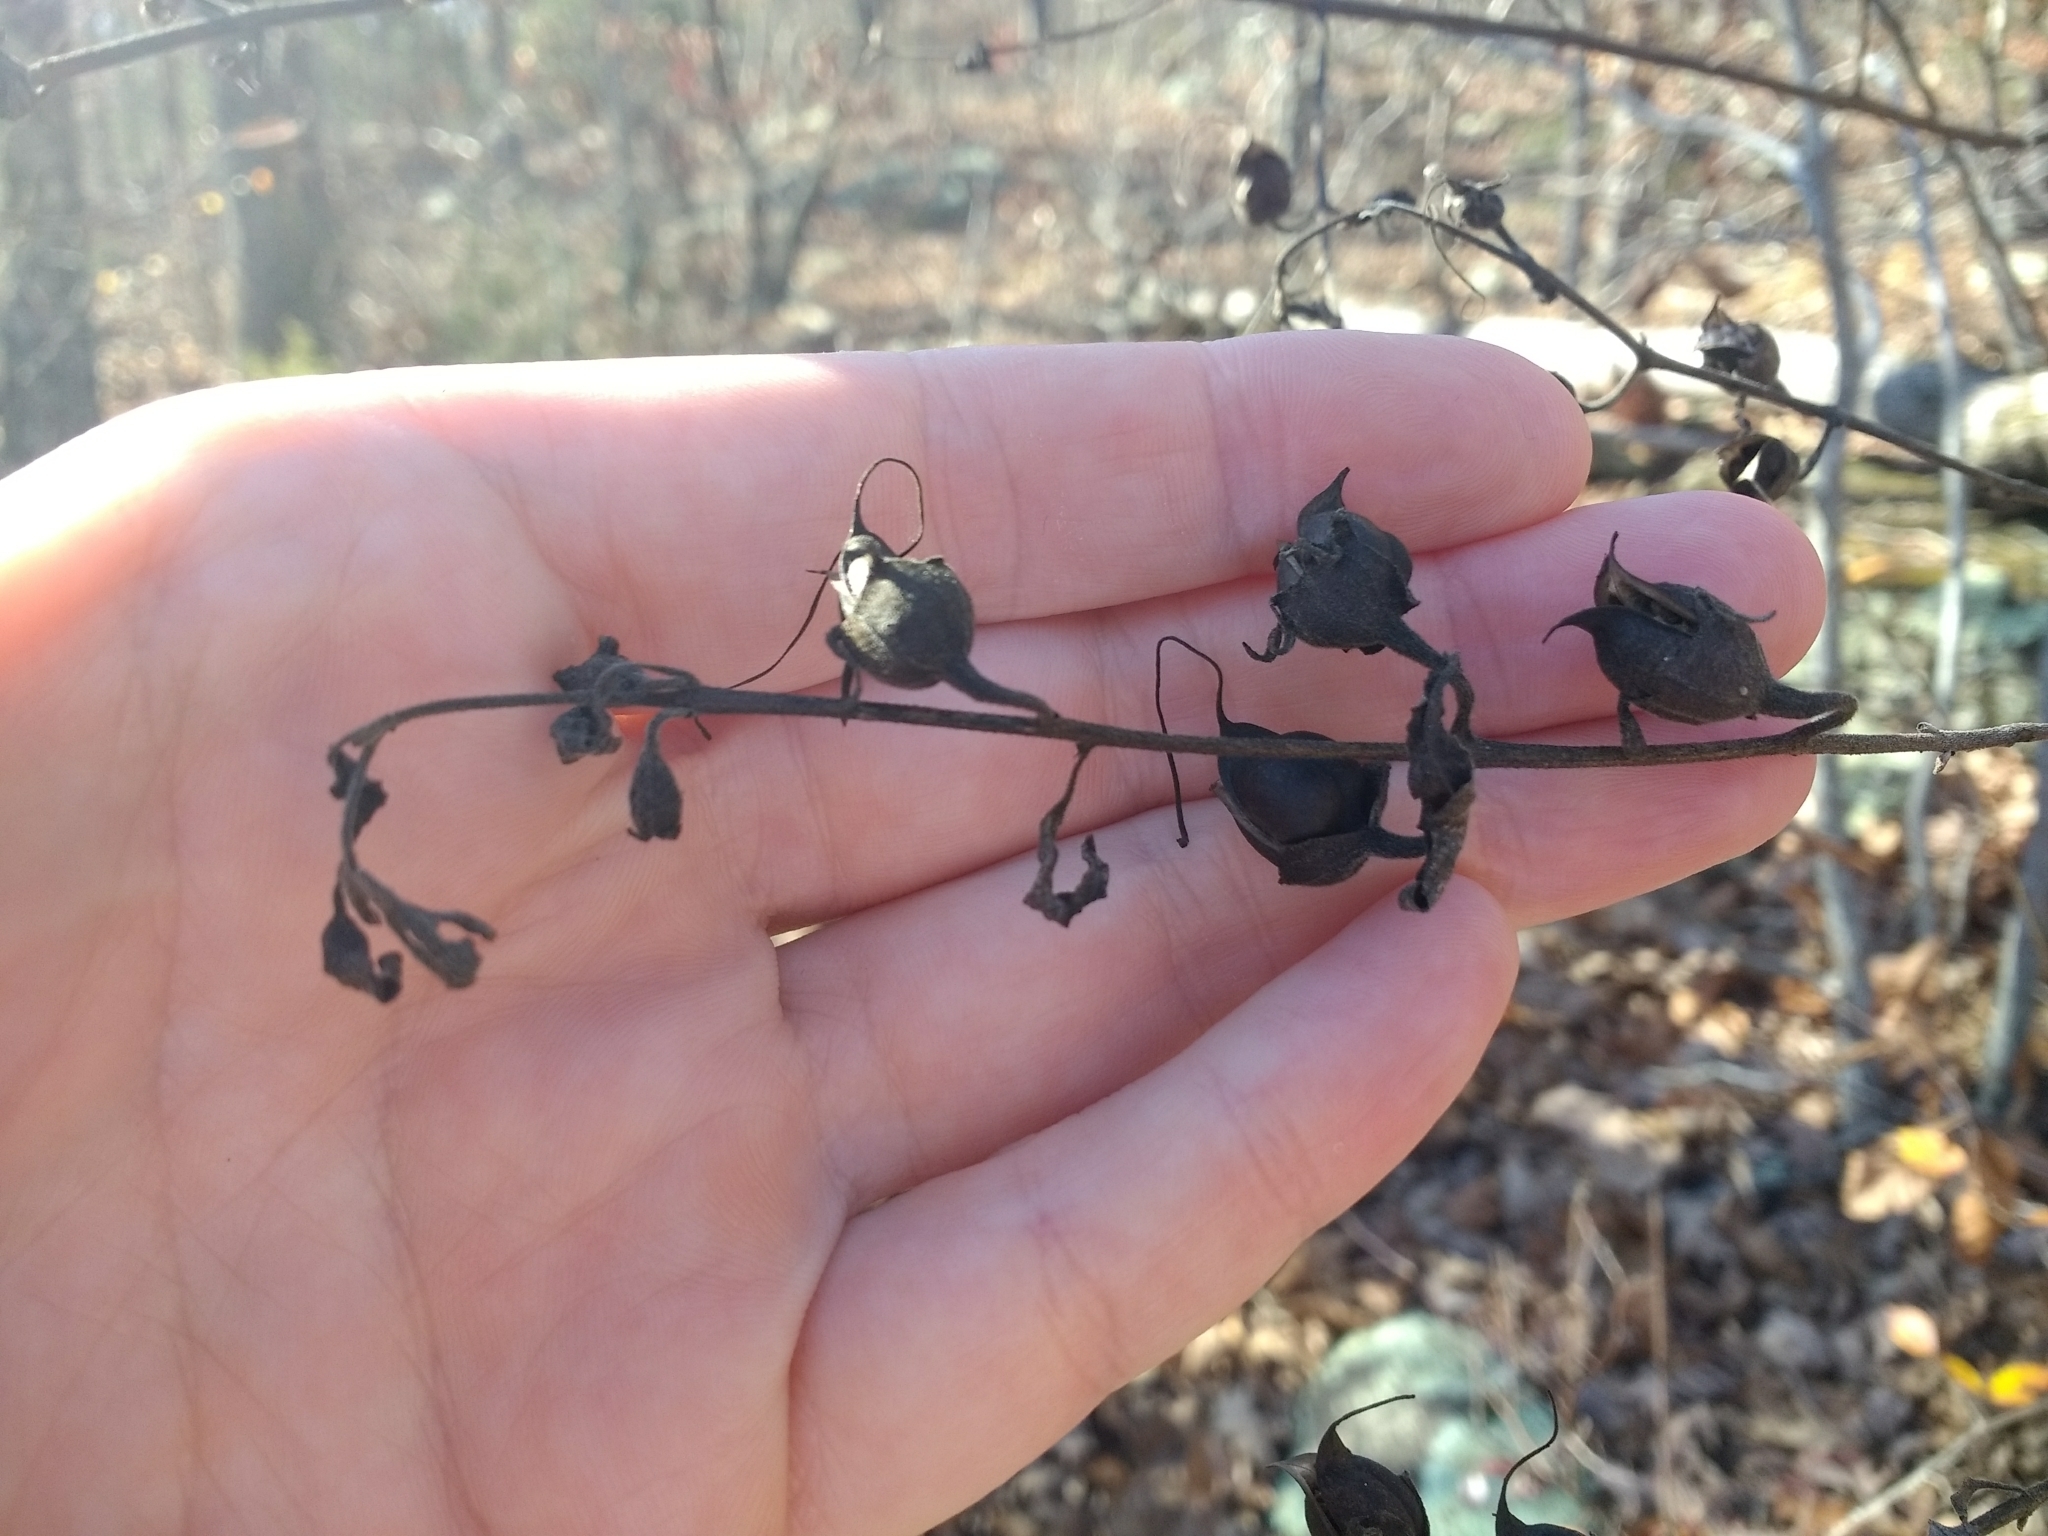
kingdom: Plantae
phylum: Tracheophyta
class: Magnoliopsida
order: Lamiales
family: Orobanchaceae
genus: Aureolaria
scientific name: Aureolaria grandiflora
